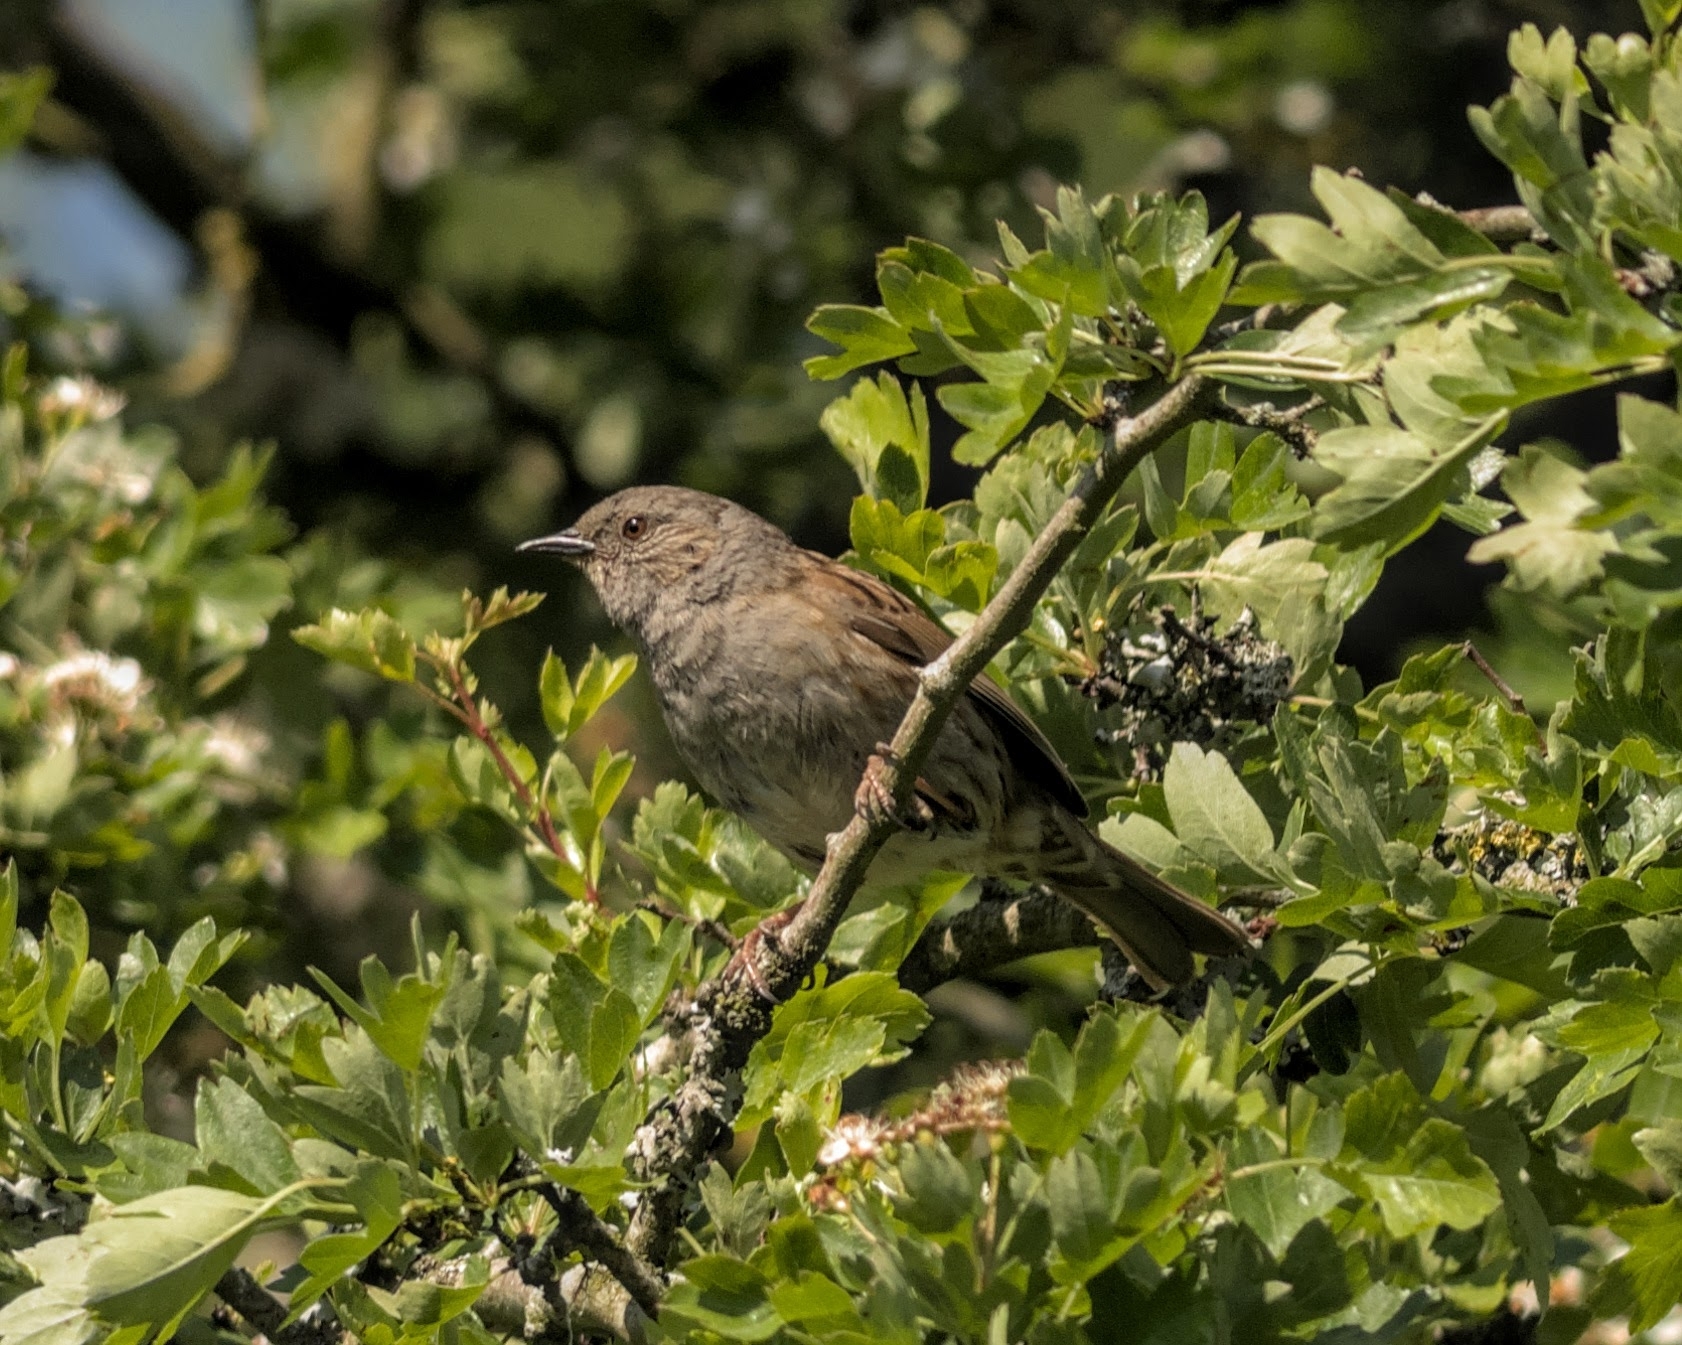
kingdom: Animalia
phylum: Chordata
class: Aves
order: Passeriformes
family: Prunellidae
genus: Prunella
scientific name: Prunella modularis
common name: Dunnock
